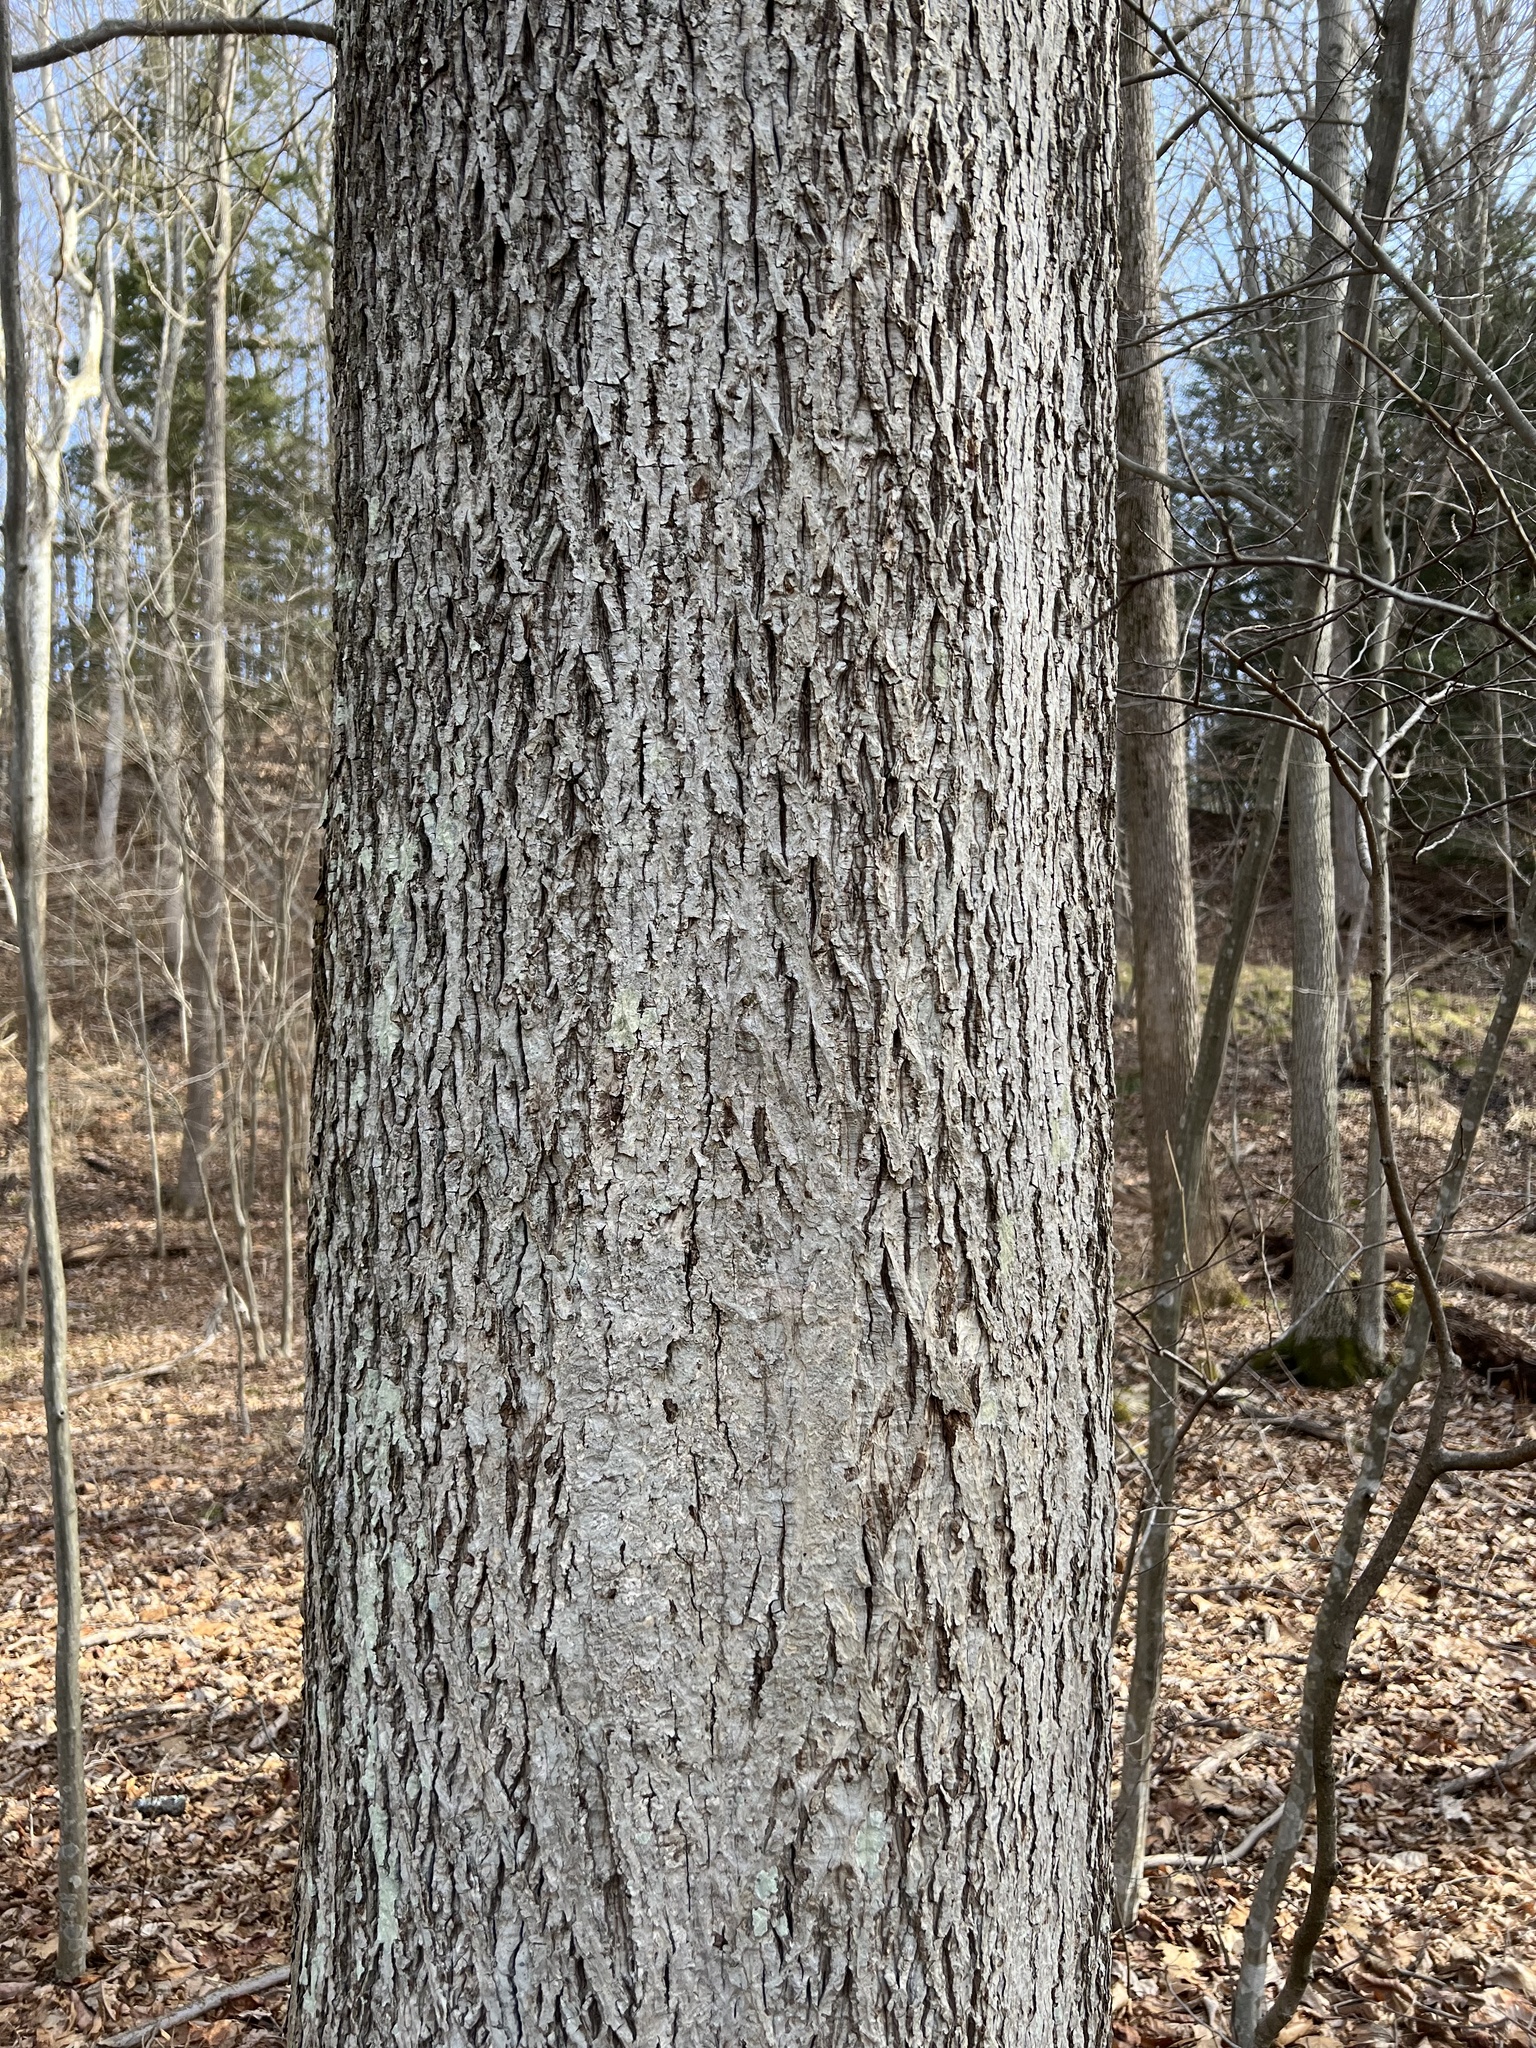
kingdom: Plantae
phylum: Tracheophyta
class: Magnoliopsida
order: Fagales
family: Juglandaceae
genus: Carya
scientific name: Carya cordiformis
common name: Bitternut hickory
